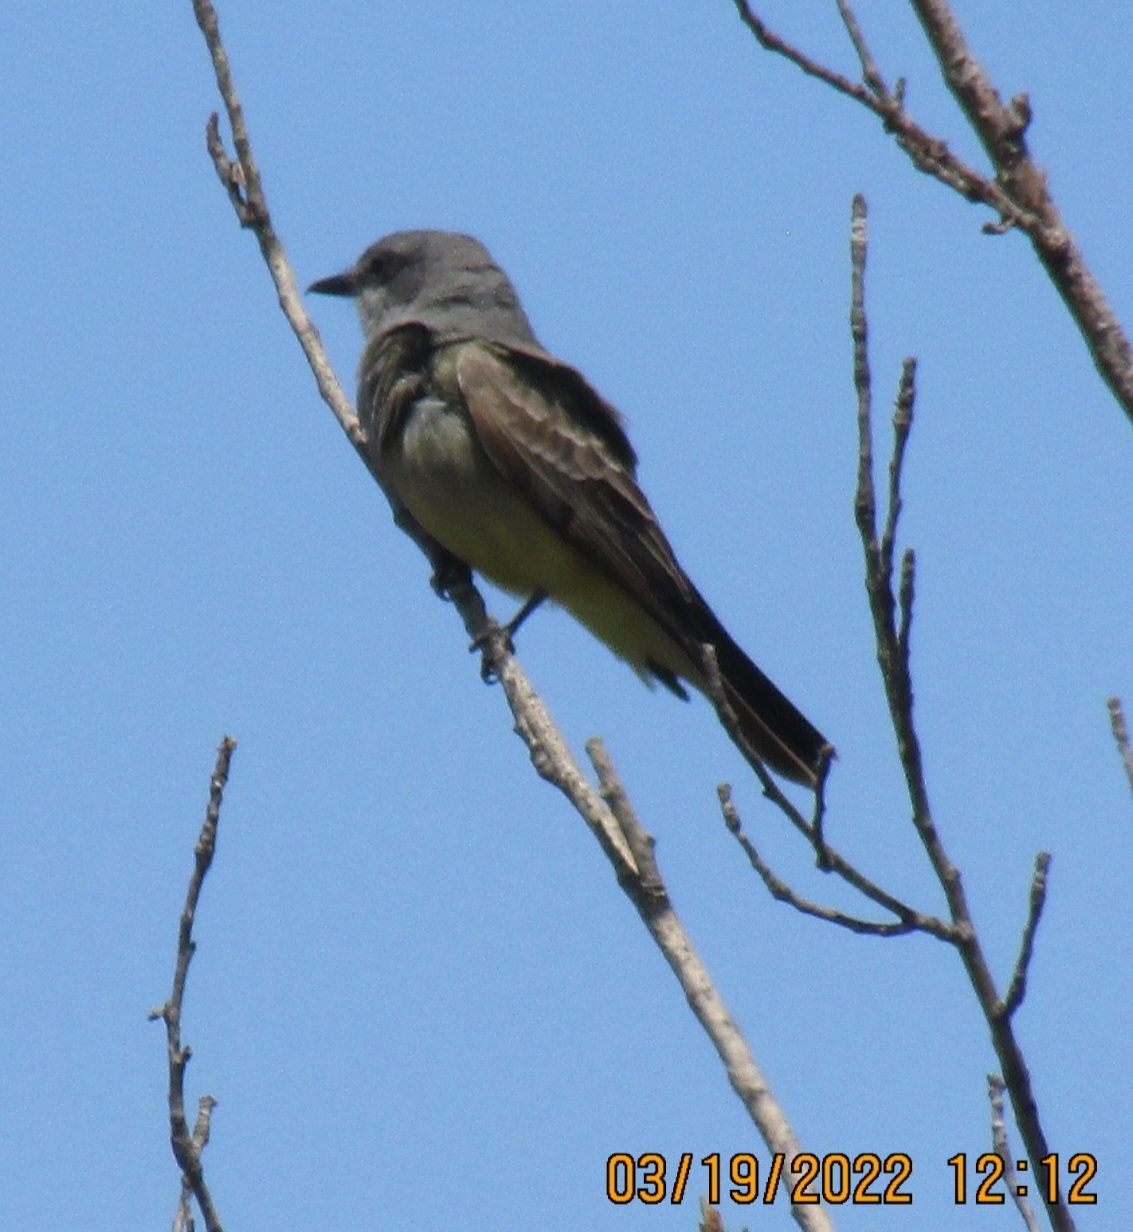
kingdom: Animalia
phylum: Chordata
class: Aves
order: Passeriformes
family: Tyrannidae
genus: Tyrannus
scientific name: Tyrannus vociferans
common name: Cassin's kingbird
